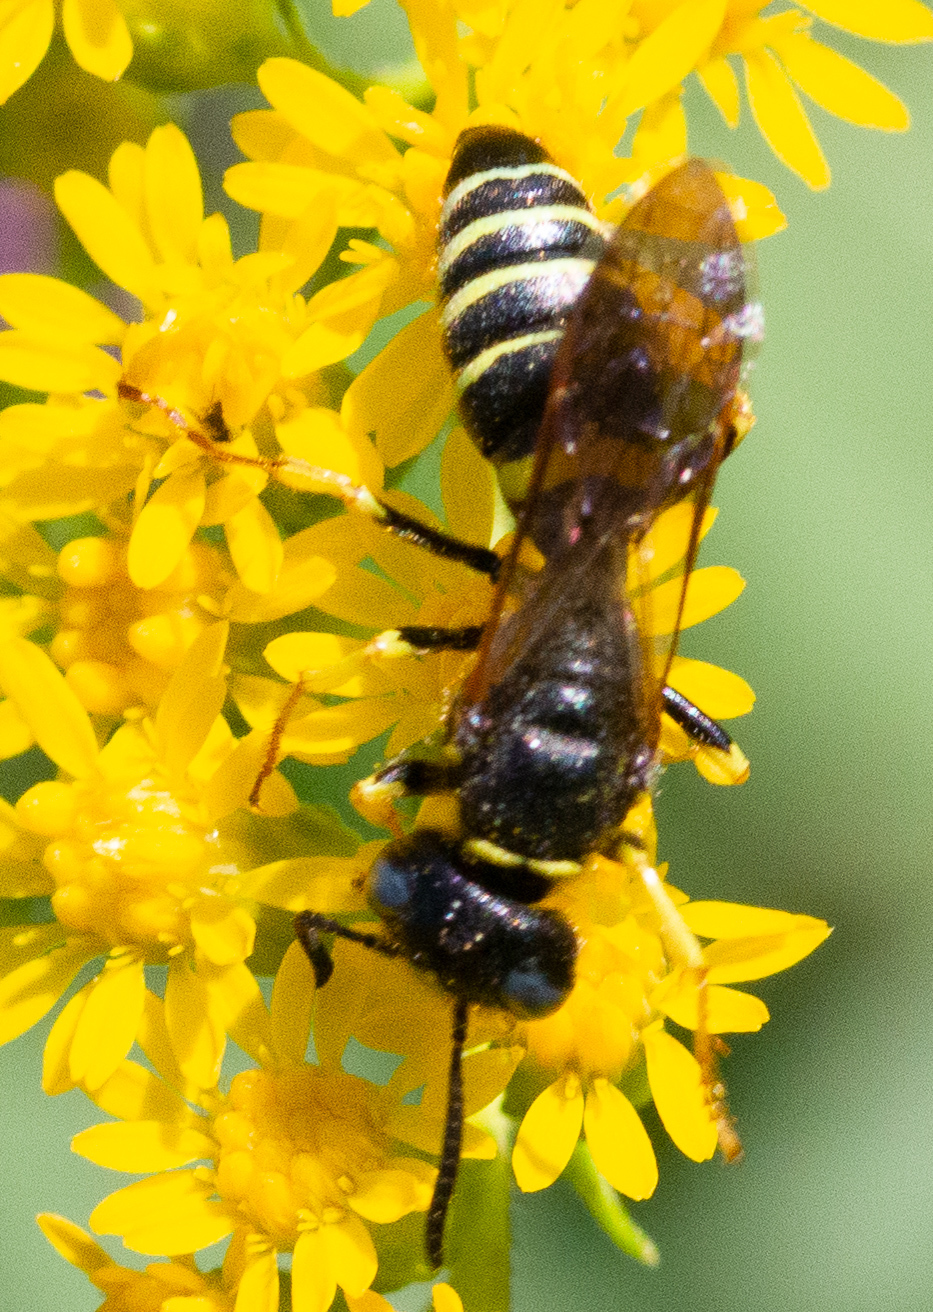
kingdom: Animalia
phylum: Arthropoda
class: Insecta
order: Hymenoptera
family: Crabronidae
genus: Philanthus
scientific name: Philanthus solivagus
